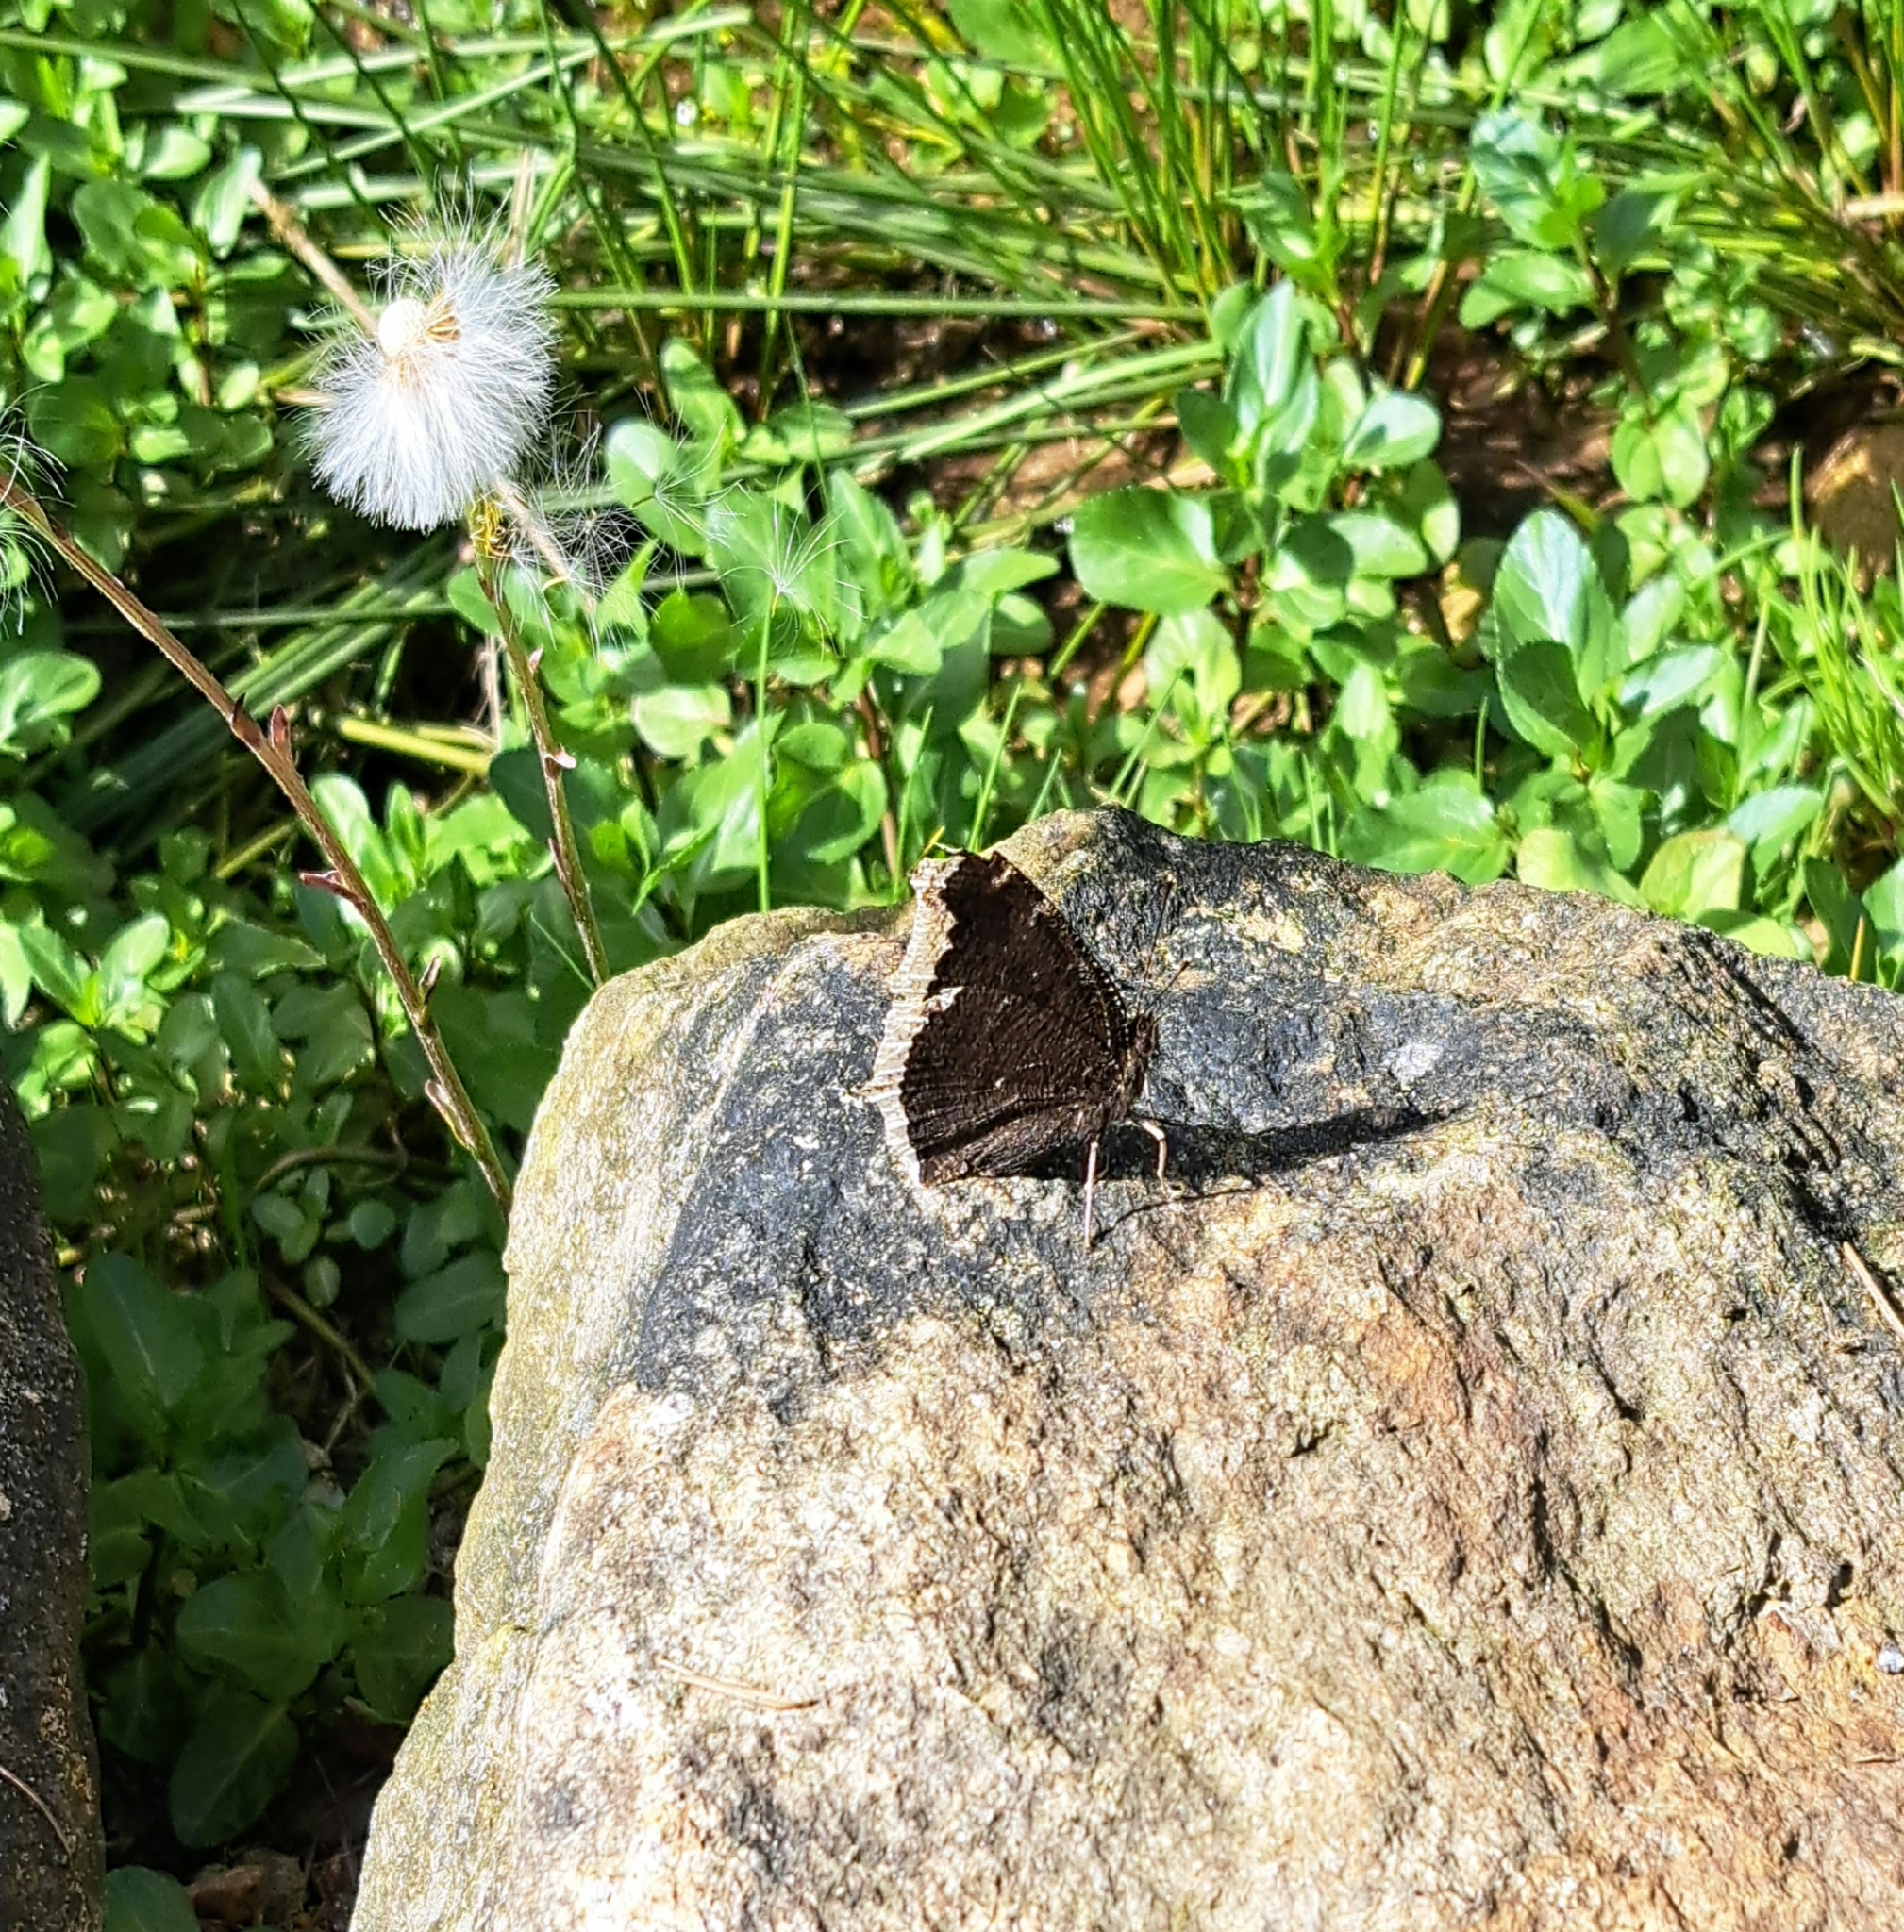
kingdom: Animalia
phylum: Arthropoda
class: Insecta
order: Lepidoptera
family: Nymphalidae
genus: Nymphalis
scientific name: Nymphalis antiopa
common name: Camberwell beauty
